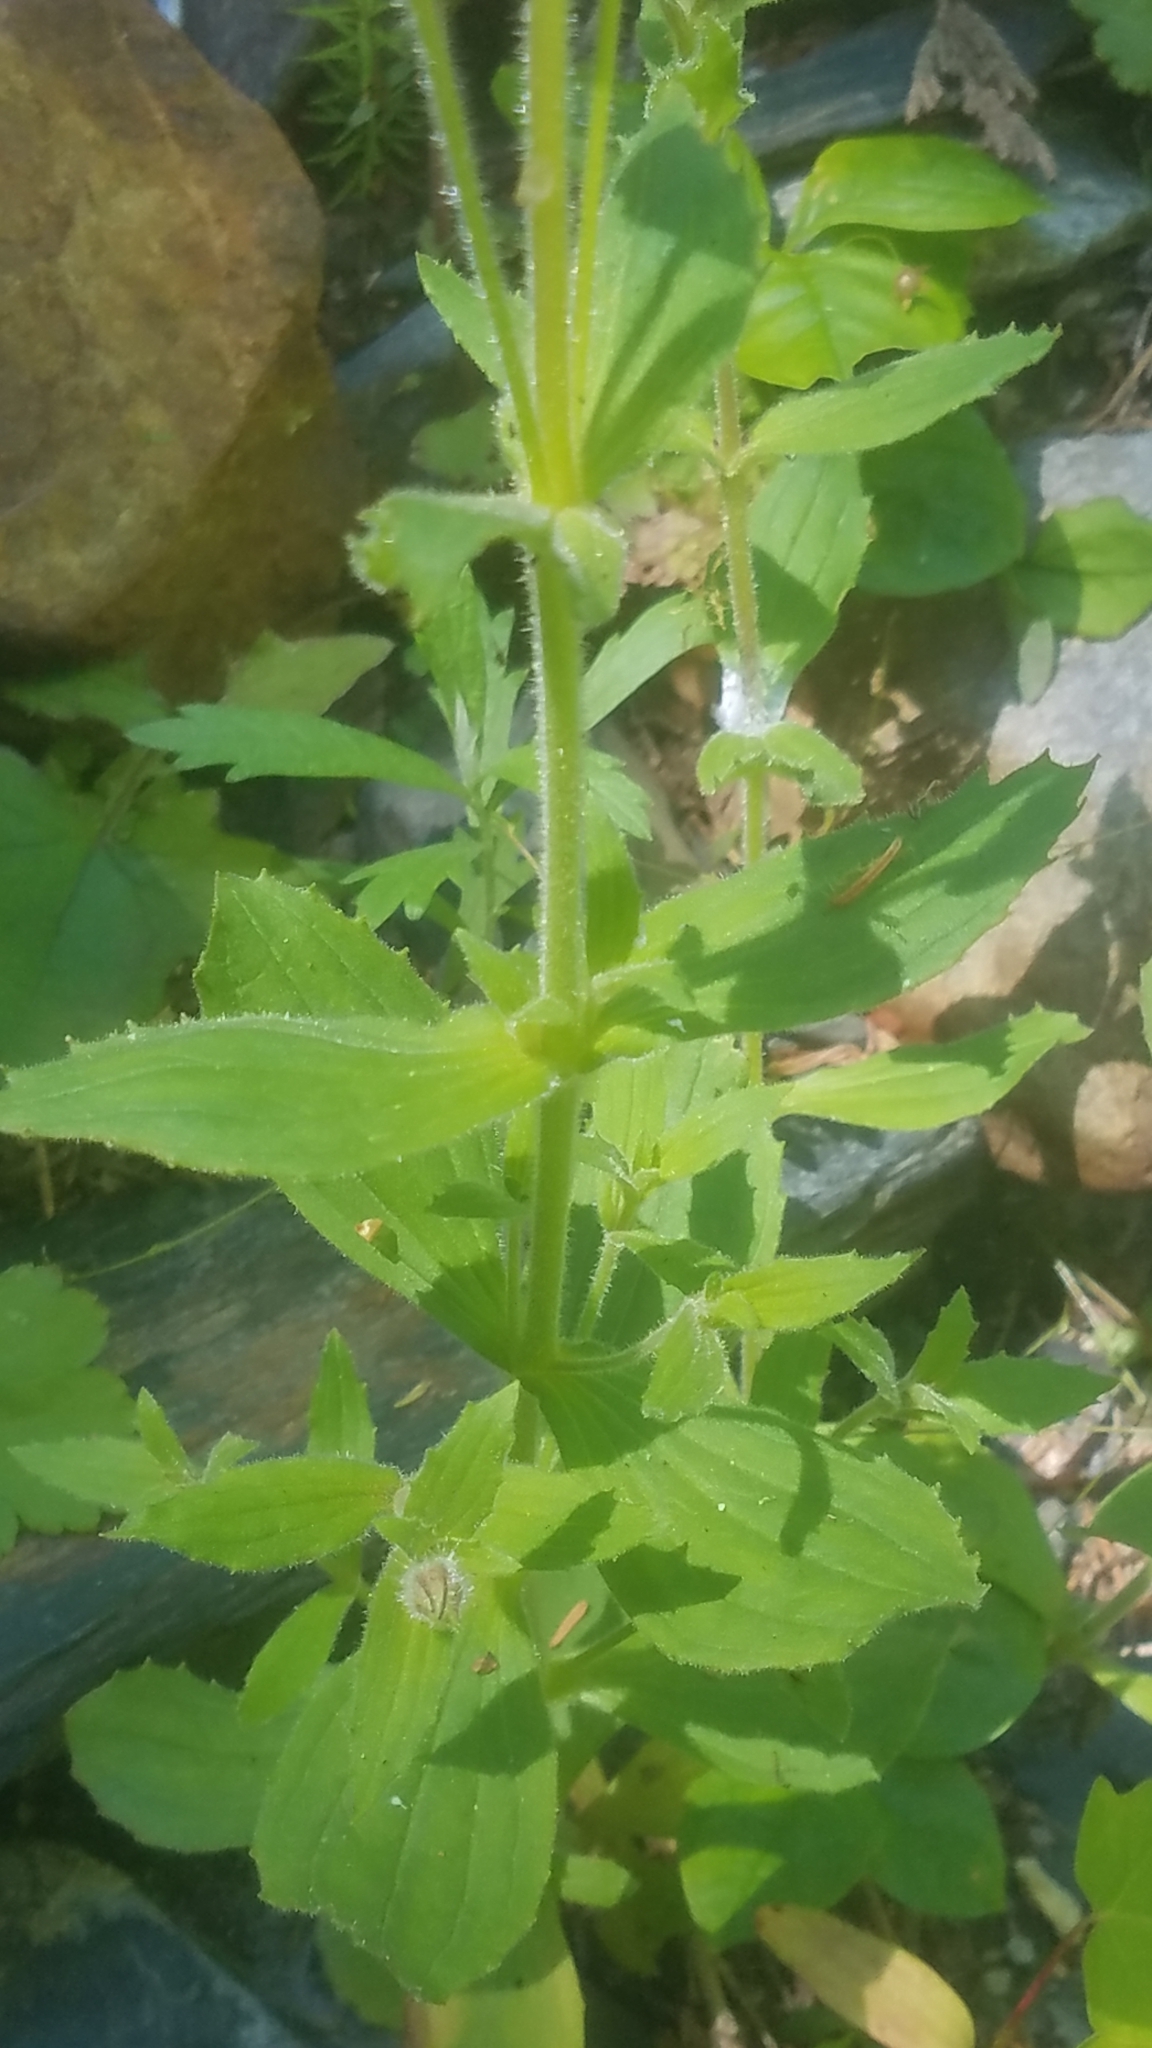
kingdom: Plantae
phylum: Tracheophyta
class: Magnoliopsida
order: Lamiales
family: Phrymaceae
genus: Erythranthe
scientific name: Erythranthe lewisii
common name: Lewis's monkey-flower
